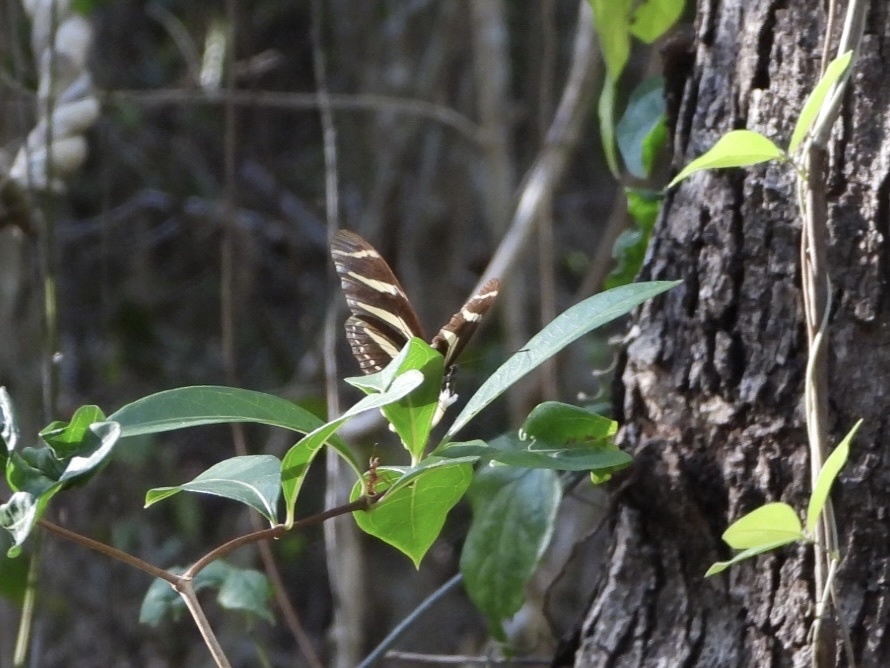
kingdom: Animalia
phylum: Arthropoda
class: Insecta
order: Lepidoptera
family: Nymphalidae
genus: Heliconius
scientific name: Heliconius charithonia
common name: Zebra long wing
